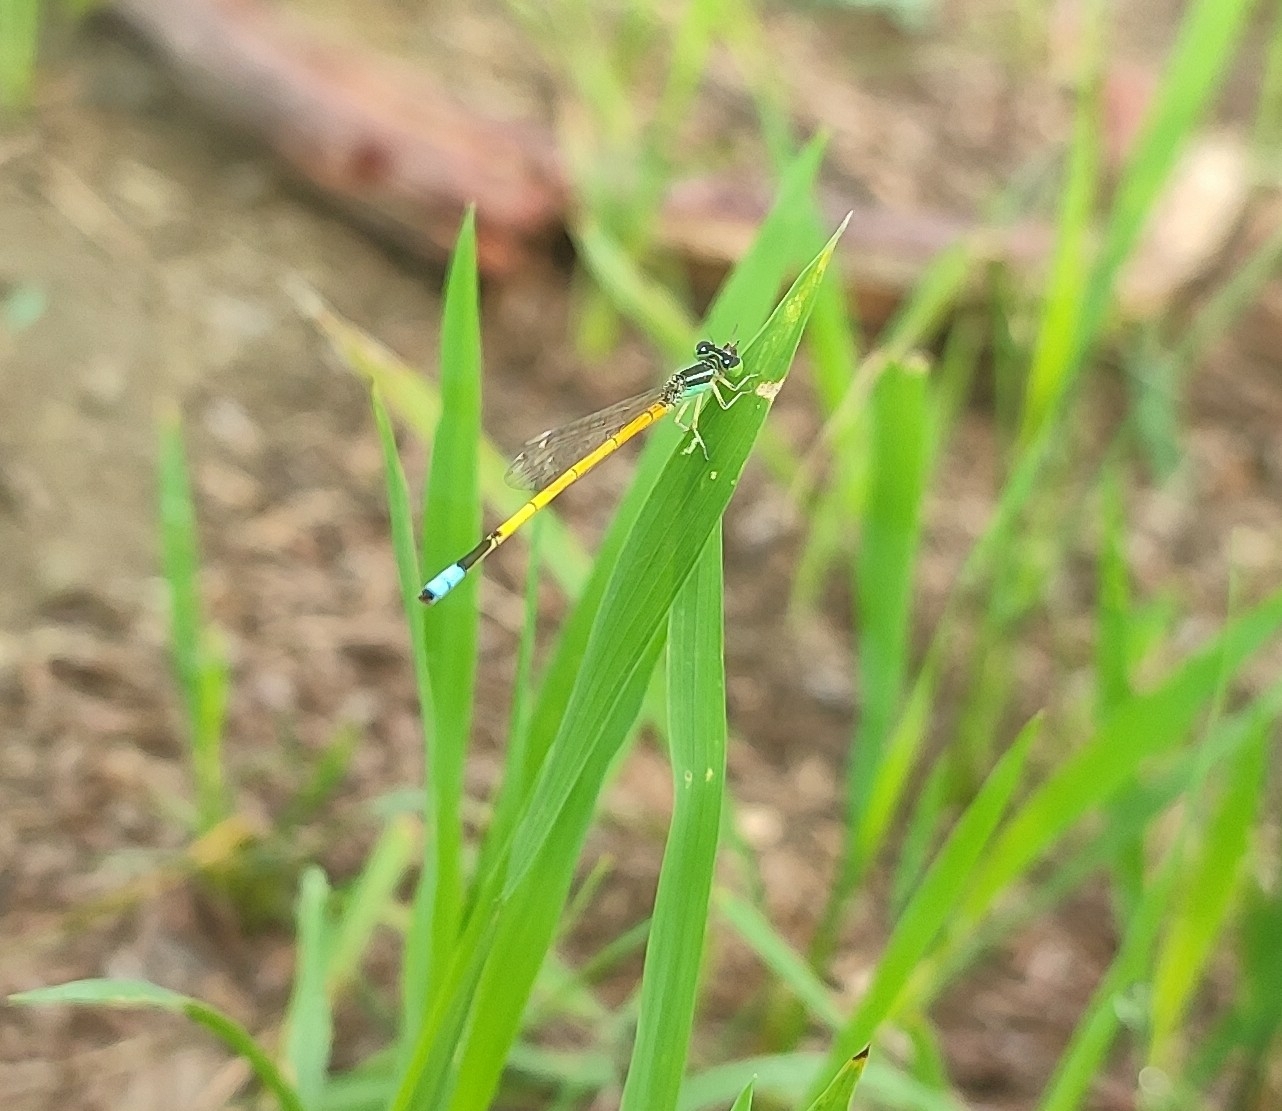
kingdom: Animalia
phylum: Arthropoda
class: Insecta
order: Odonata
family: Coenagrionidae
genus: Ischnura
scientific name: Ischnura rubilio
